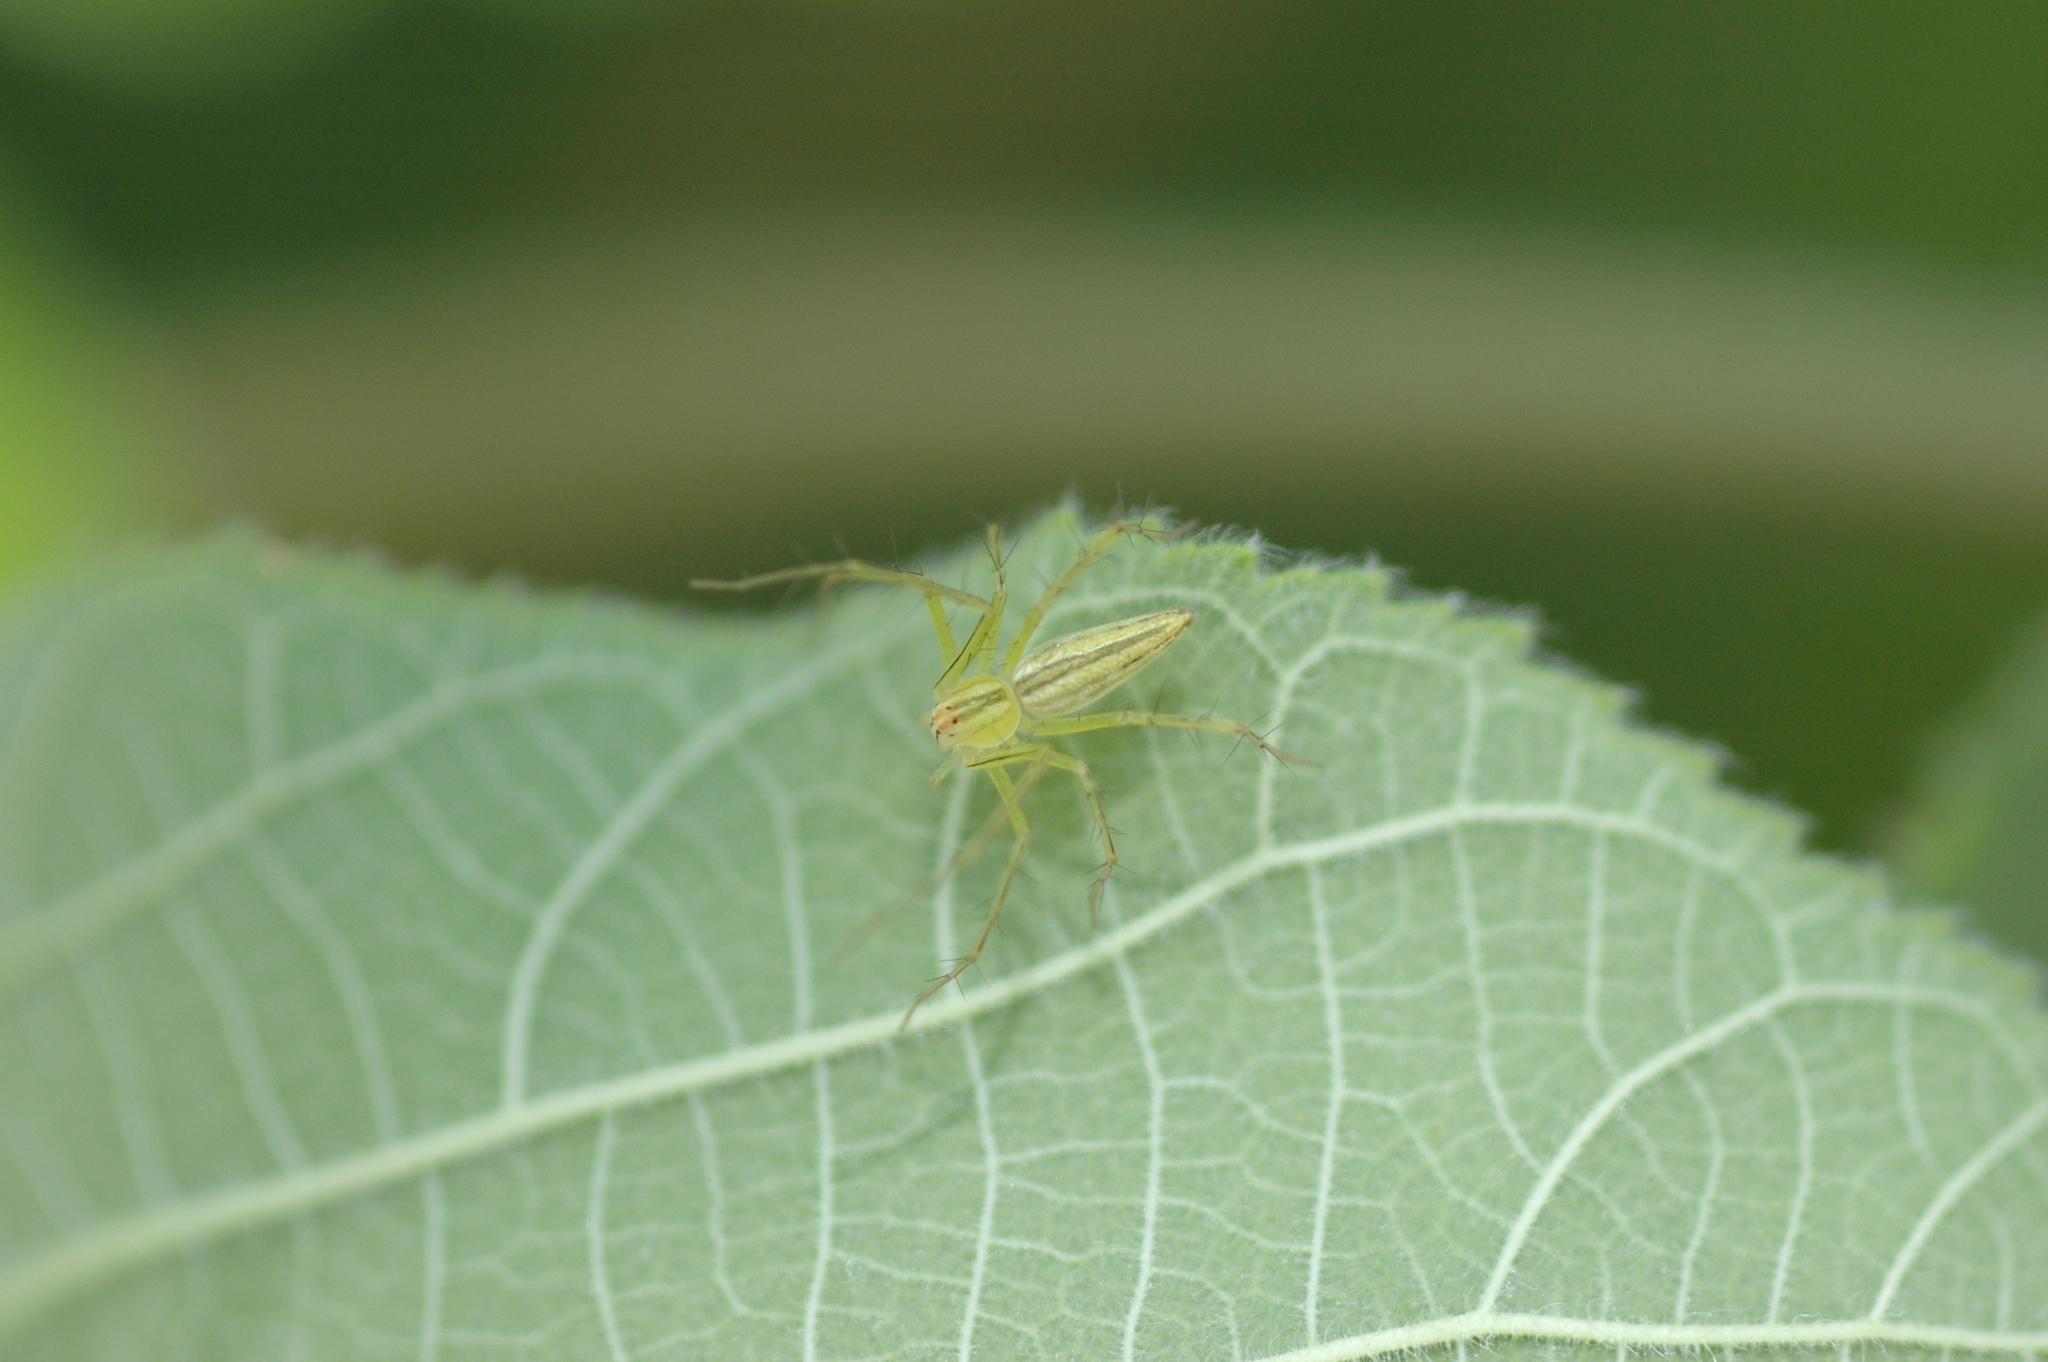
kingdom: Animalia
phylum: Arthropoda
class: Arachnida
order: Araneae
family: Oxyopidae
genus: Oxyopes
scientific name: Oxyopes macilentus
